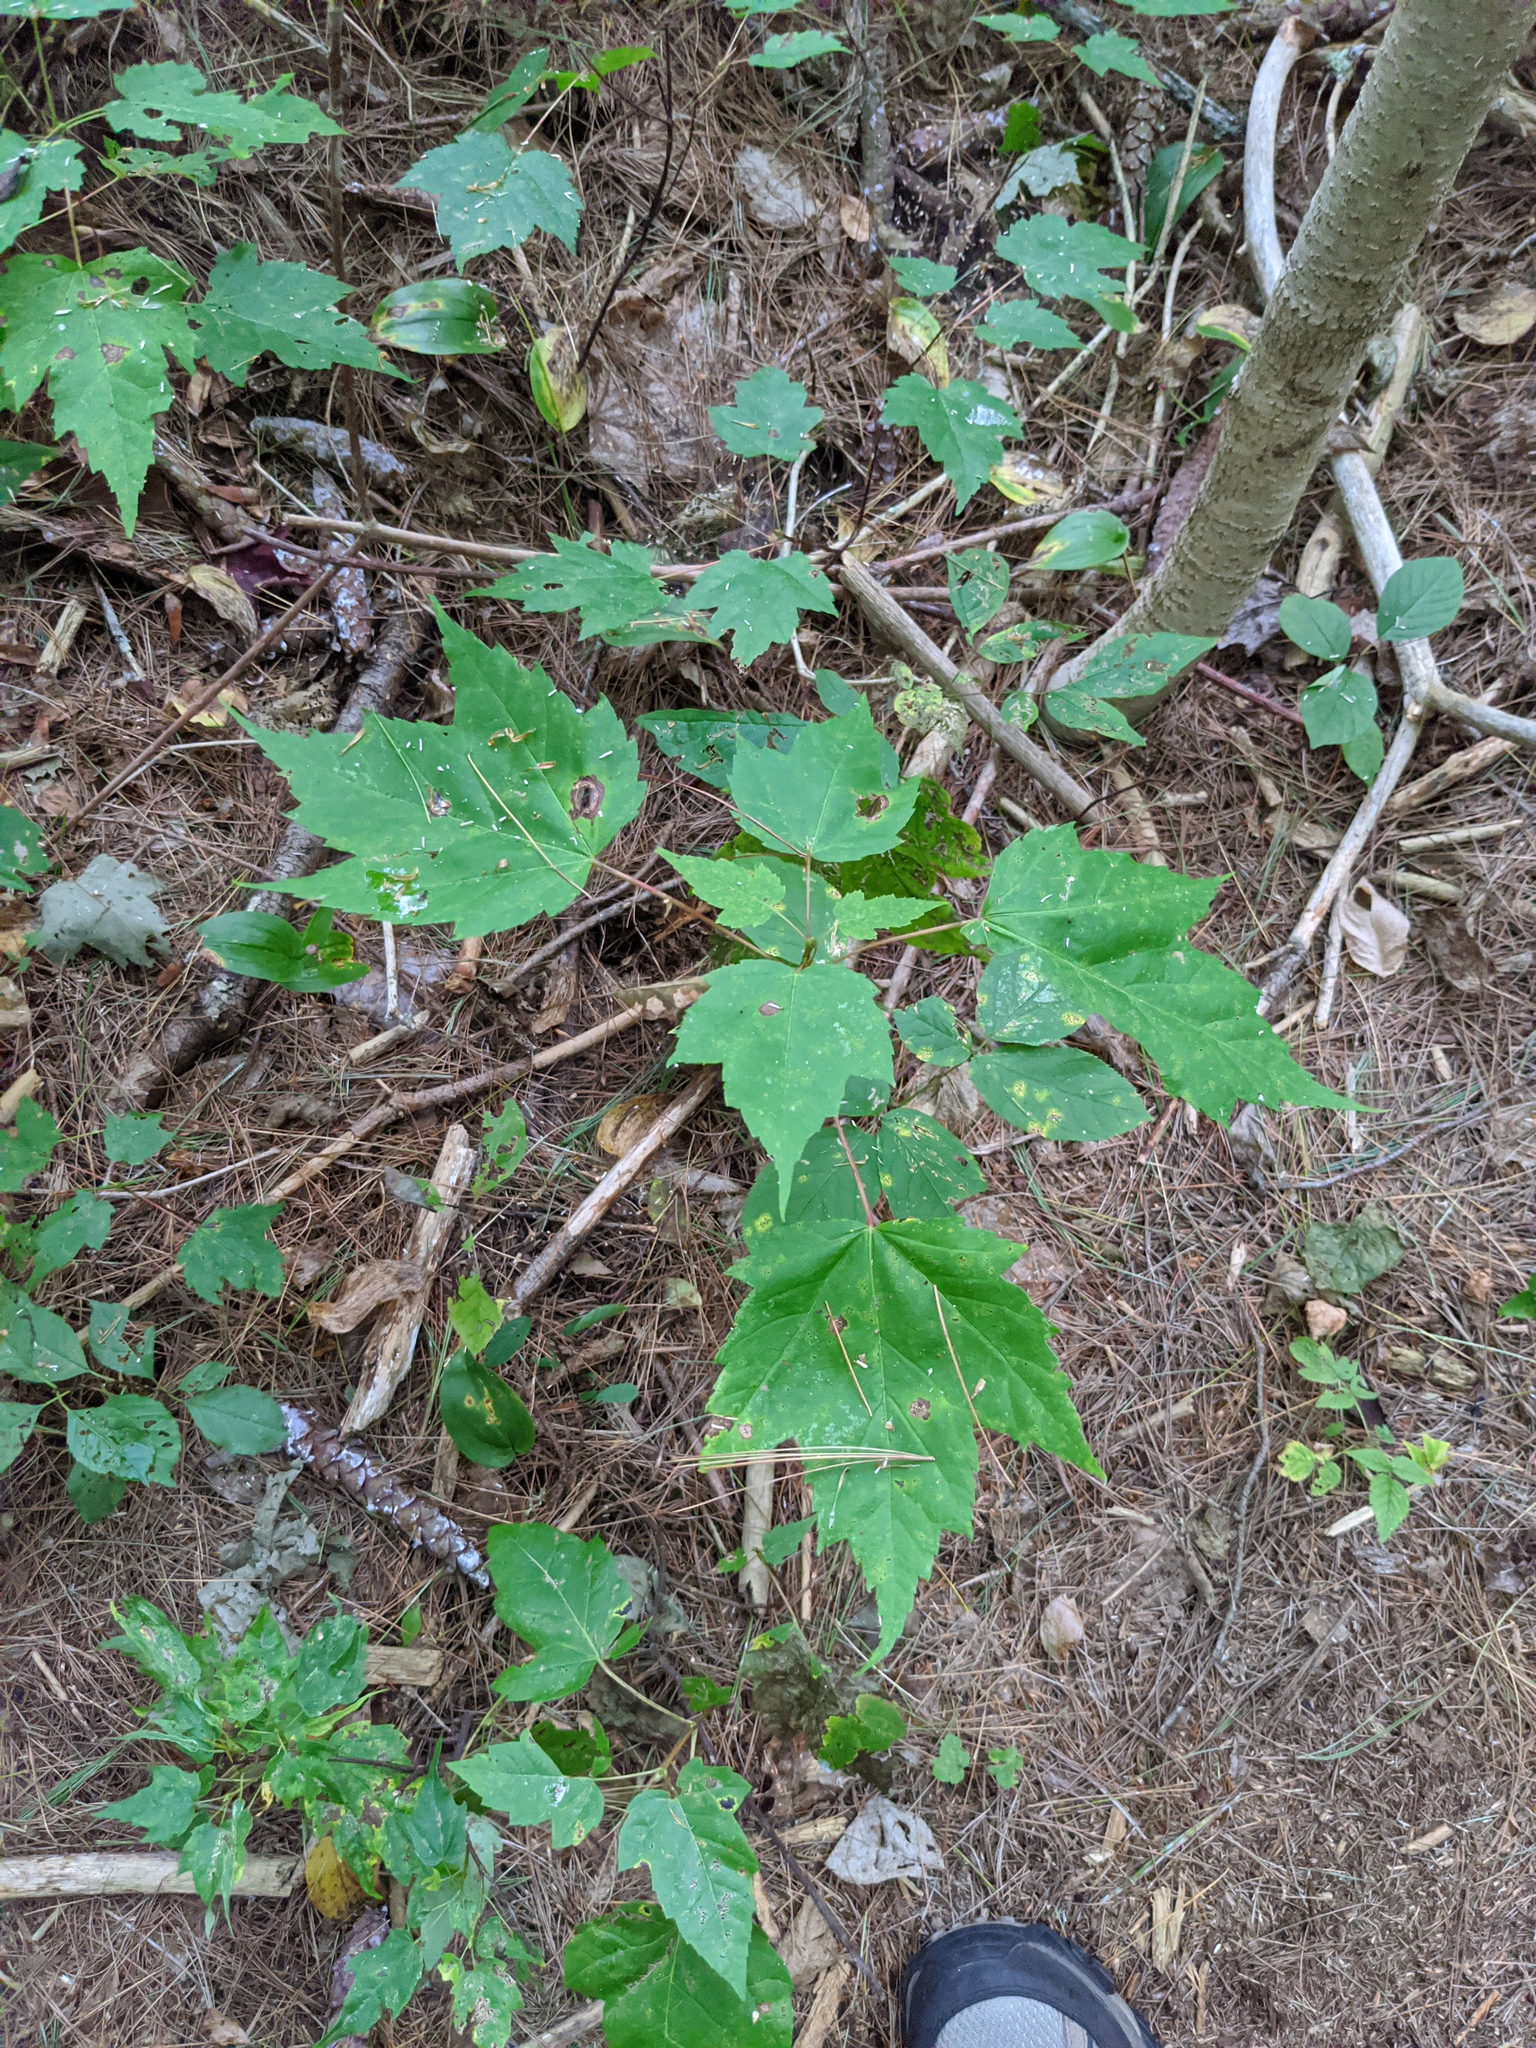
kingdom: Plantae
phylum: Tracheophyta
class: Magnoliopsida
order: Sapindales
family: Sapindaceae
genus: Acer
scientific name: Acer rubrum
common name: Red maple
